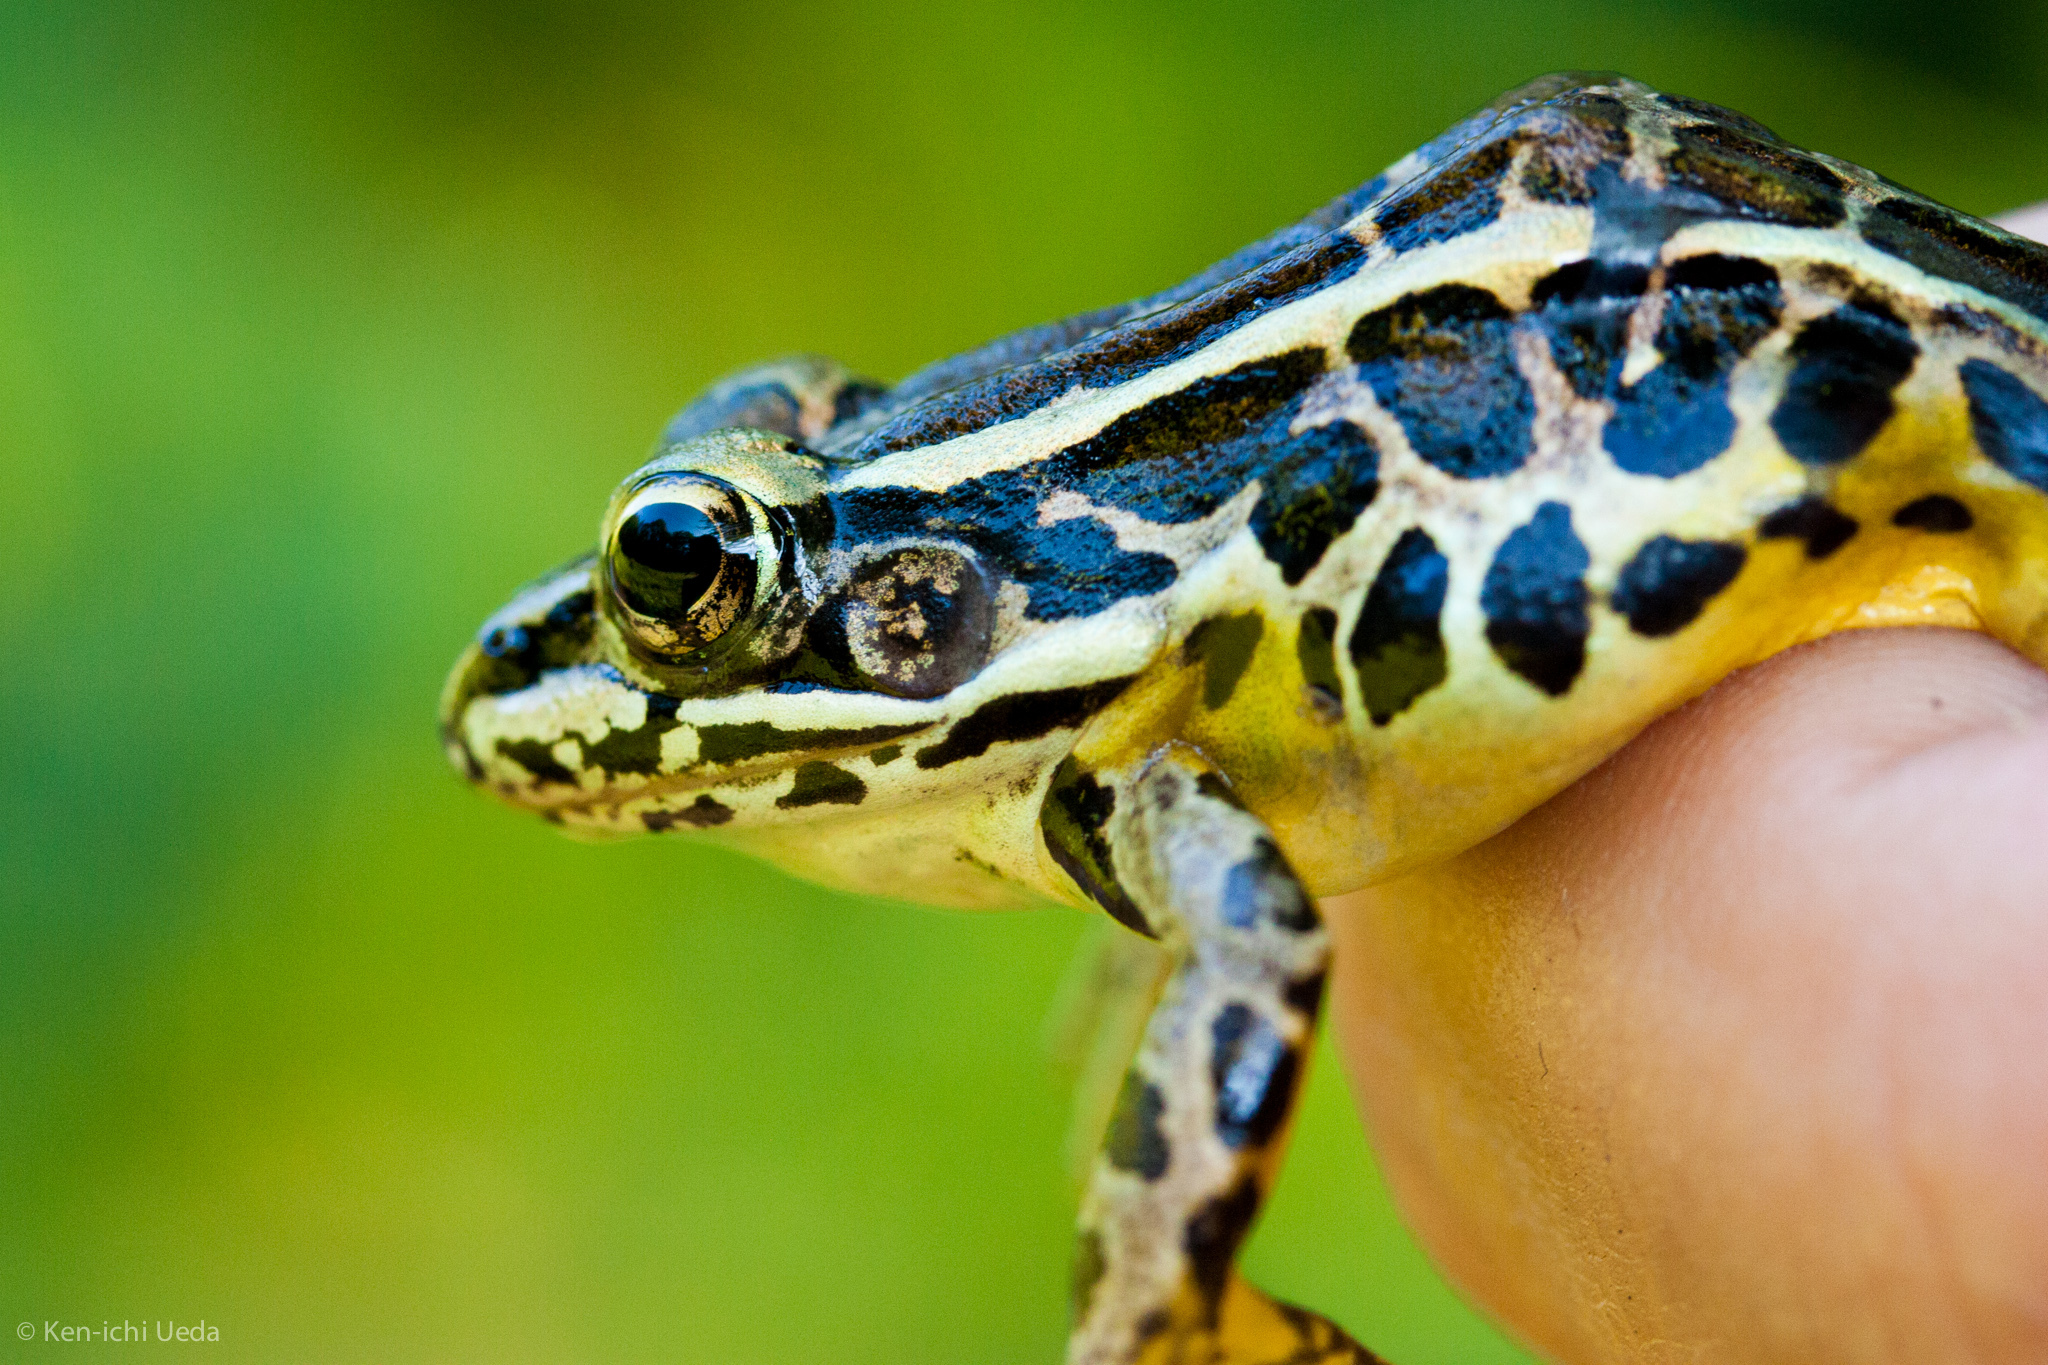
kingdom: Animalia
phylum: Chordata
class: Amphibia
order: Anura
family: Ranidae
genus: Lithobates
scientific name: Lithobates palustris
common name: Pickerel frog
